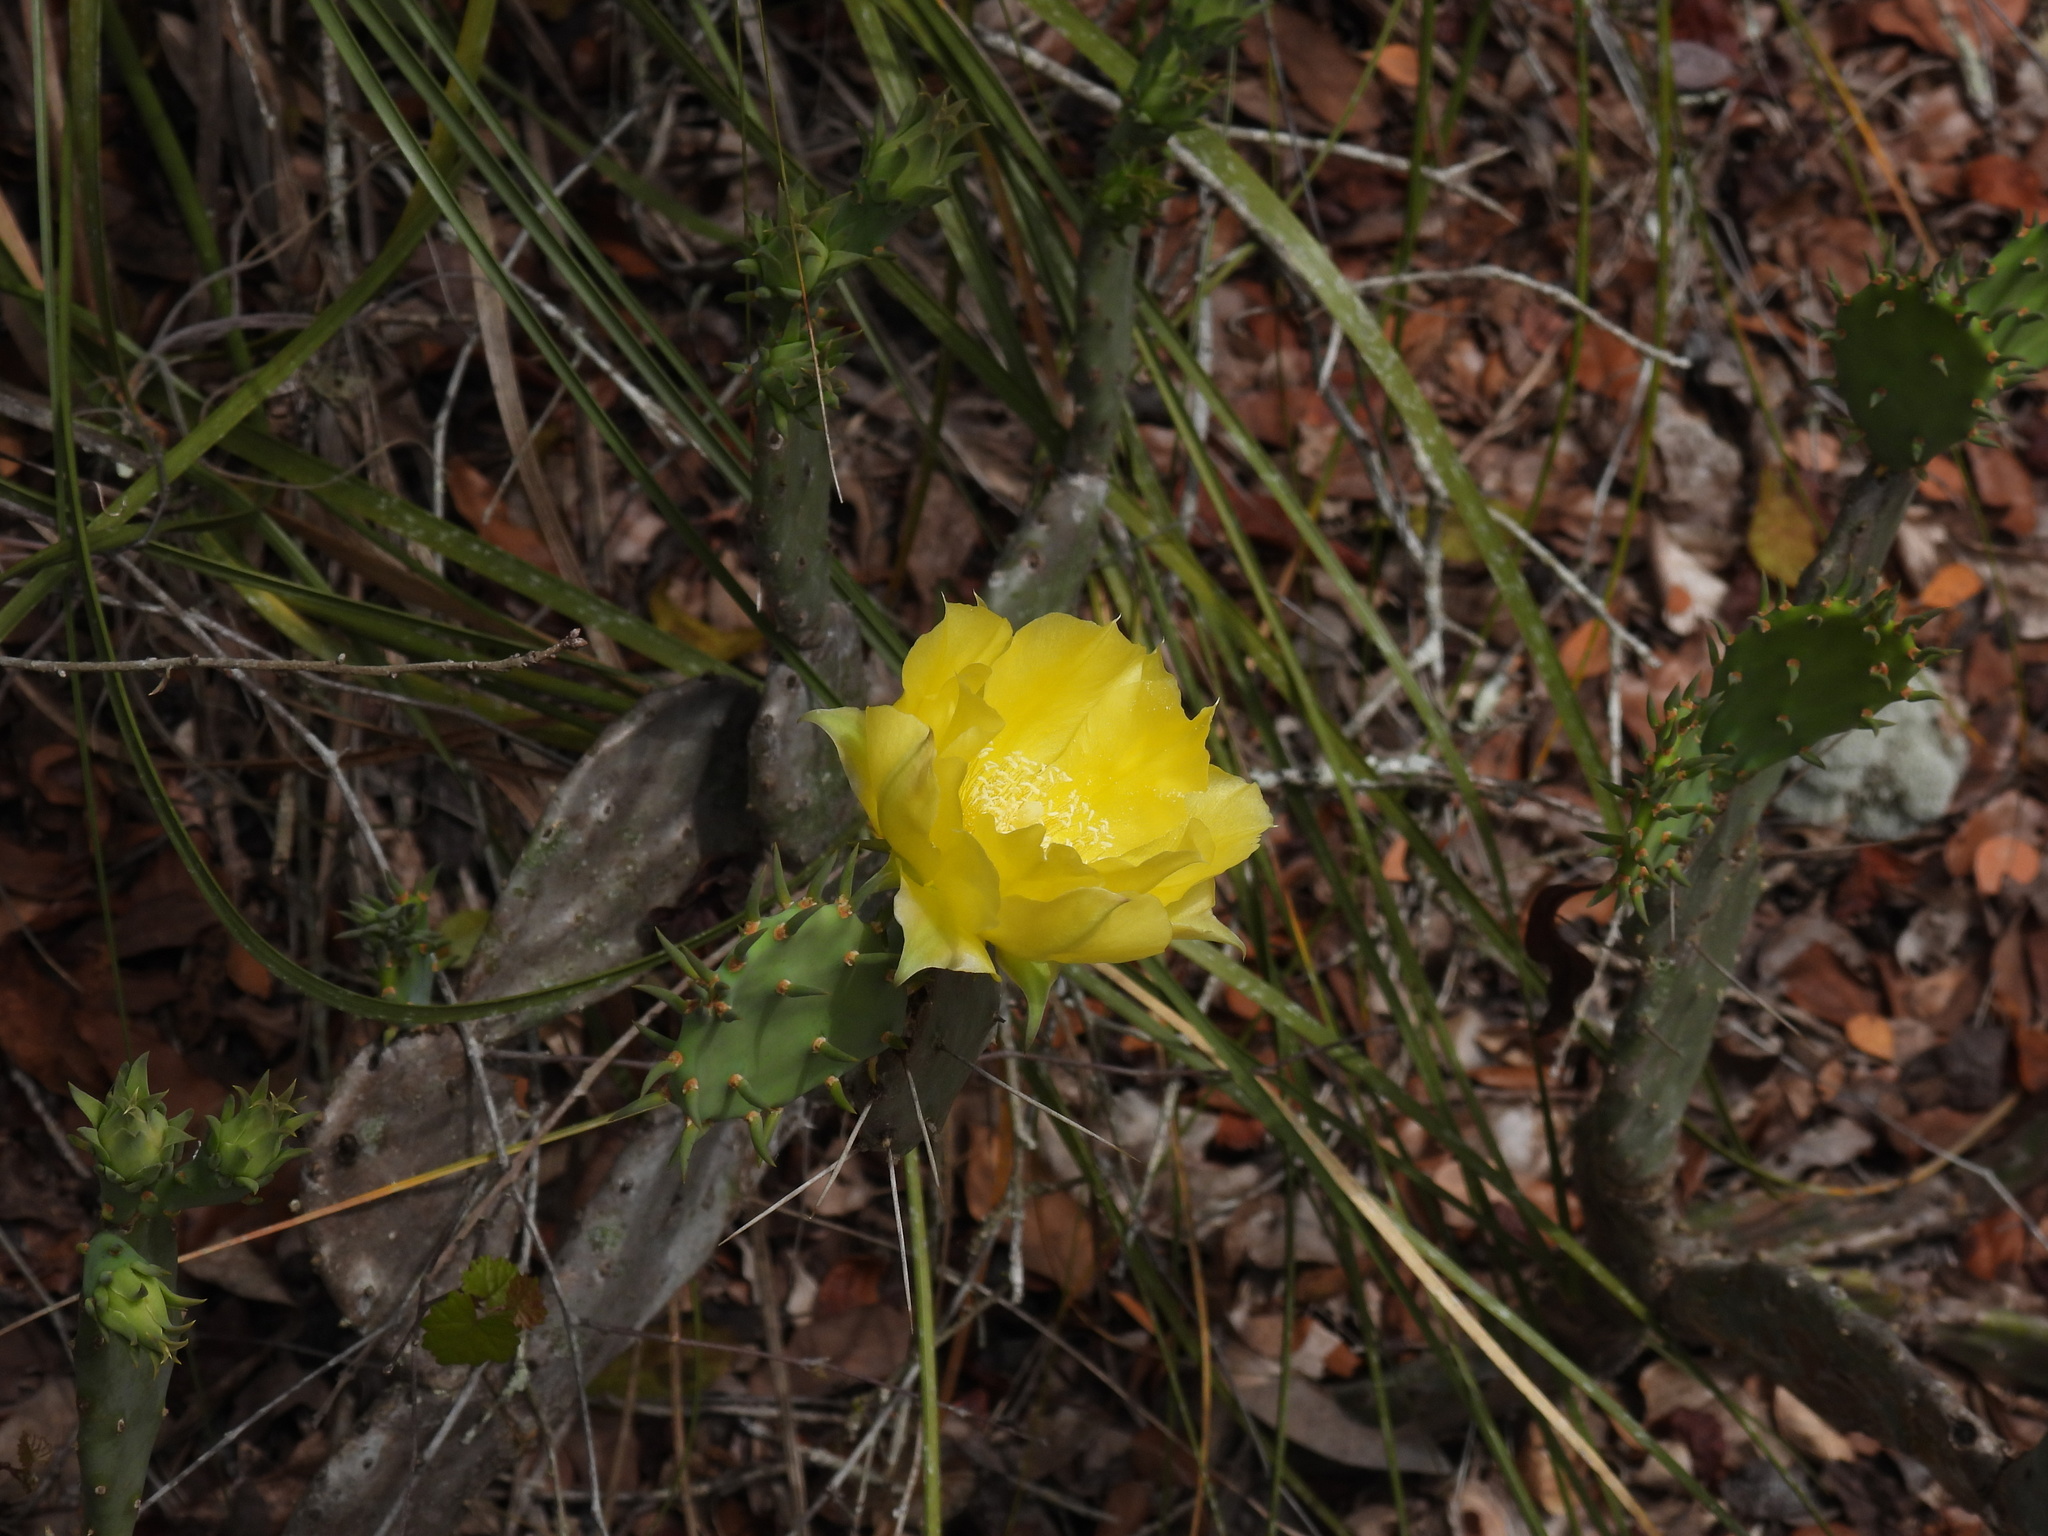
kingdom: Plantae
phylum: Tracheophyta
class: Magnoliopsida
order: Caryophyllales
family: Cactaceae
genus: Opuntia
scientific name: Opuntia austrina
